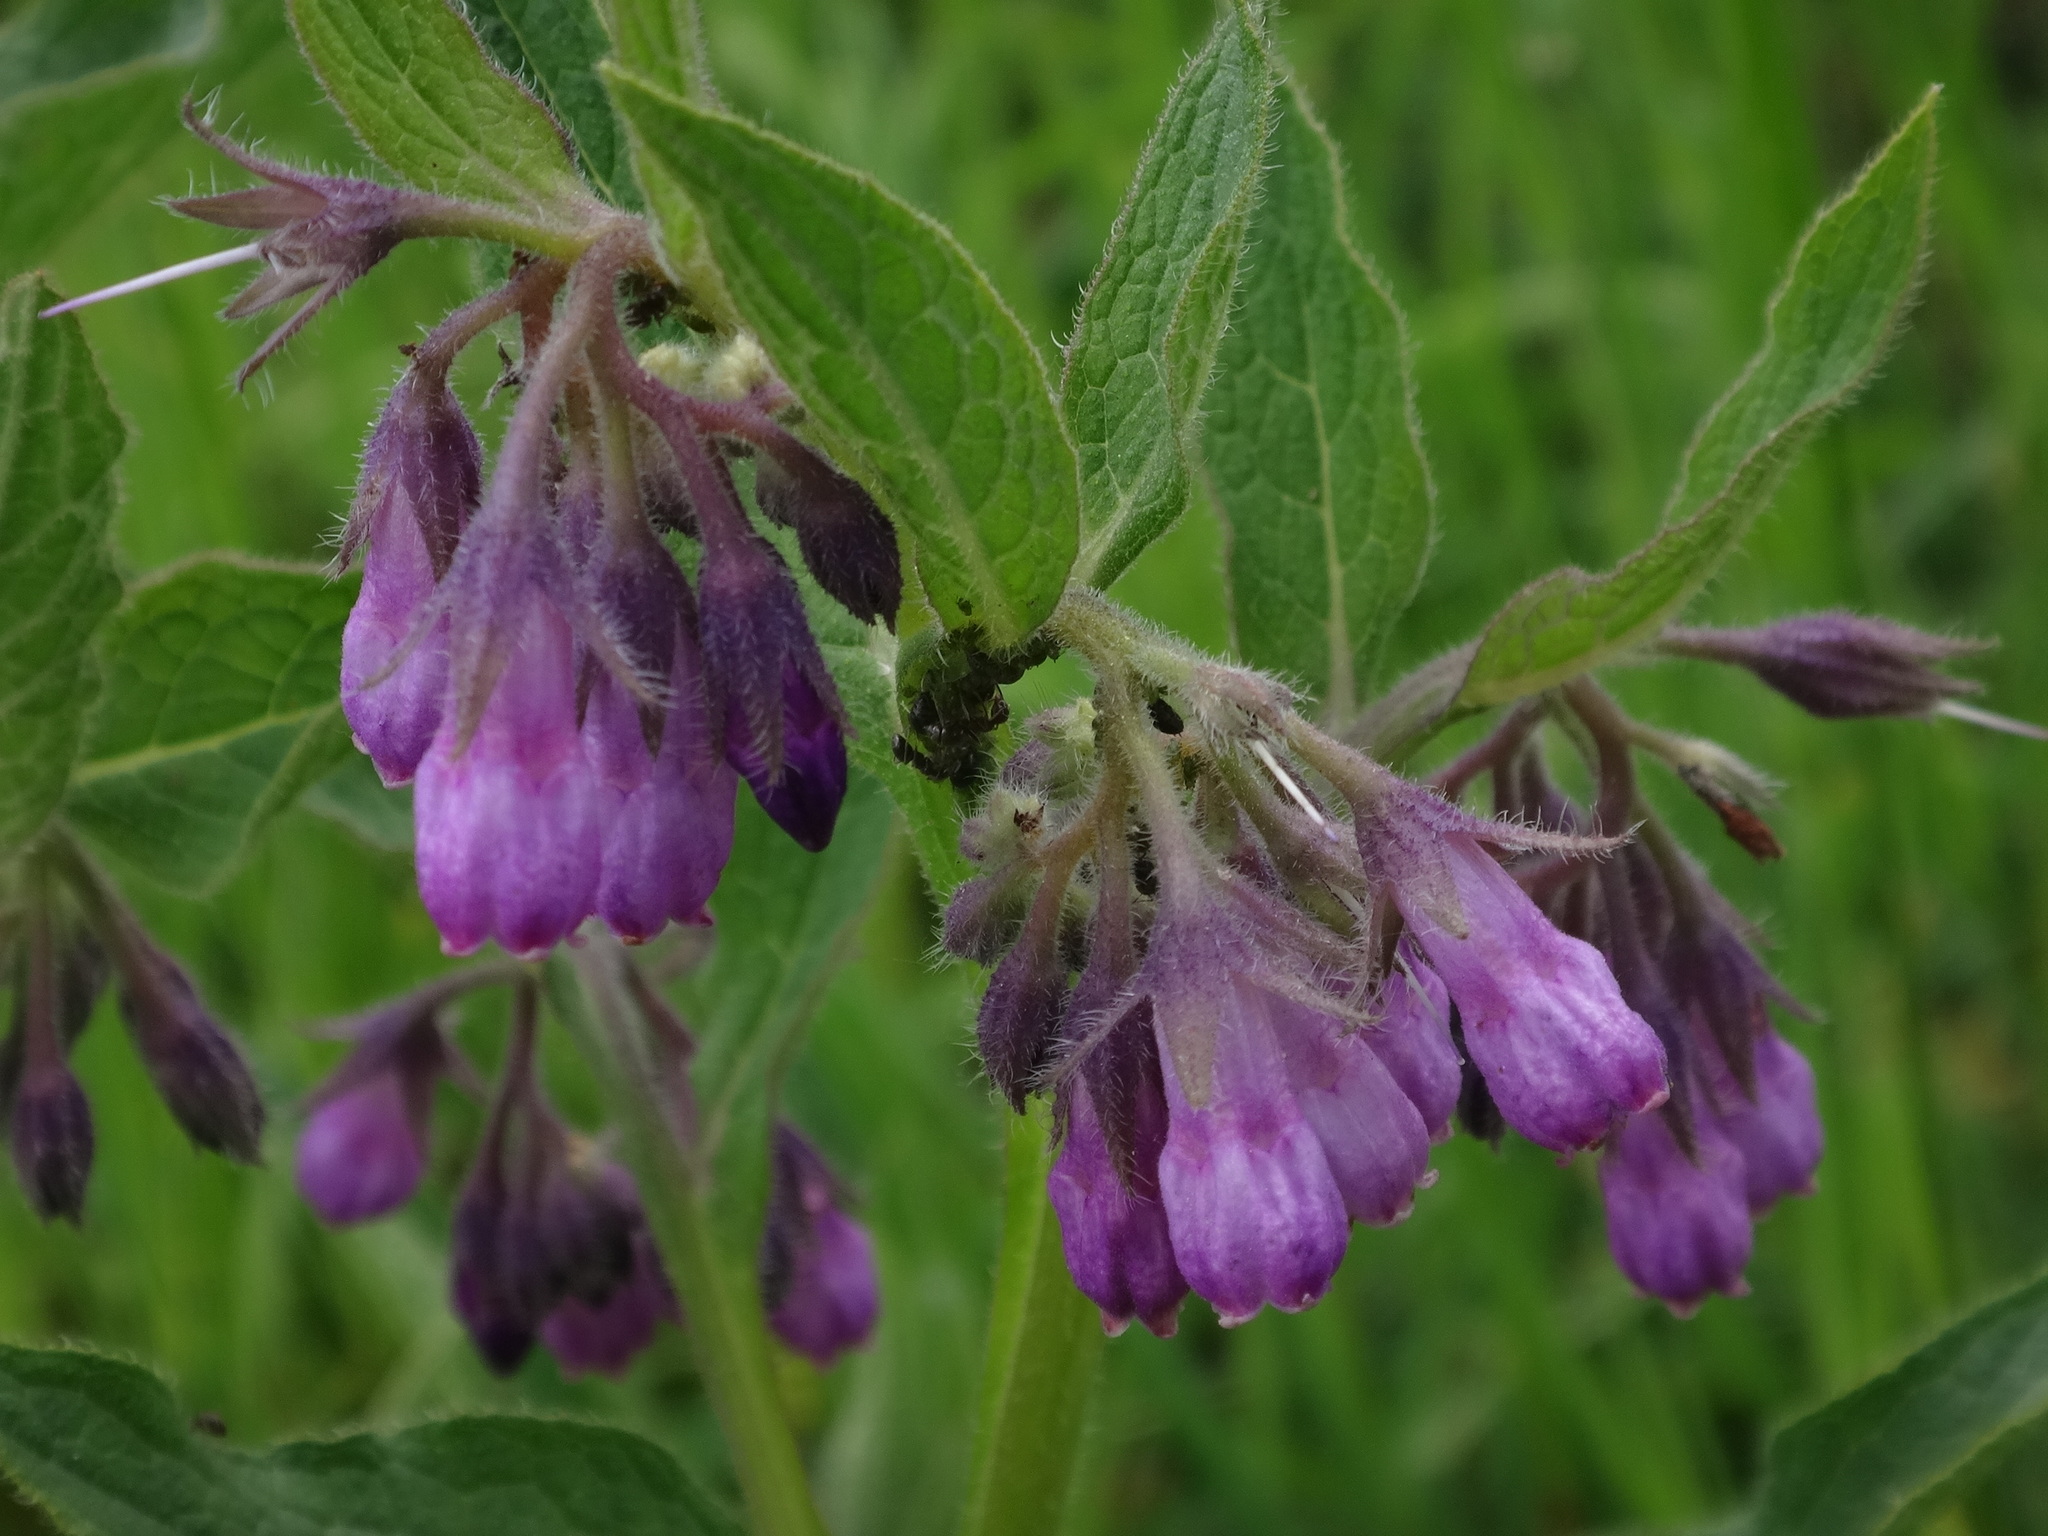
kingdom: Plantae
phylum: Tracheophyta
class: Magnoliopsida
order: Boraginales
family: Boraginaceae
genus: Symphytum
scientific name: Symphytum officinale
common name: Common comfrey
